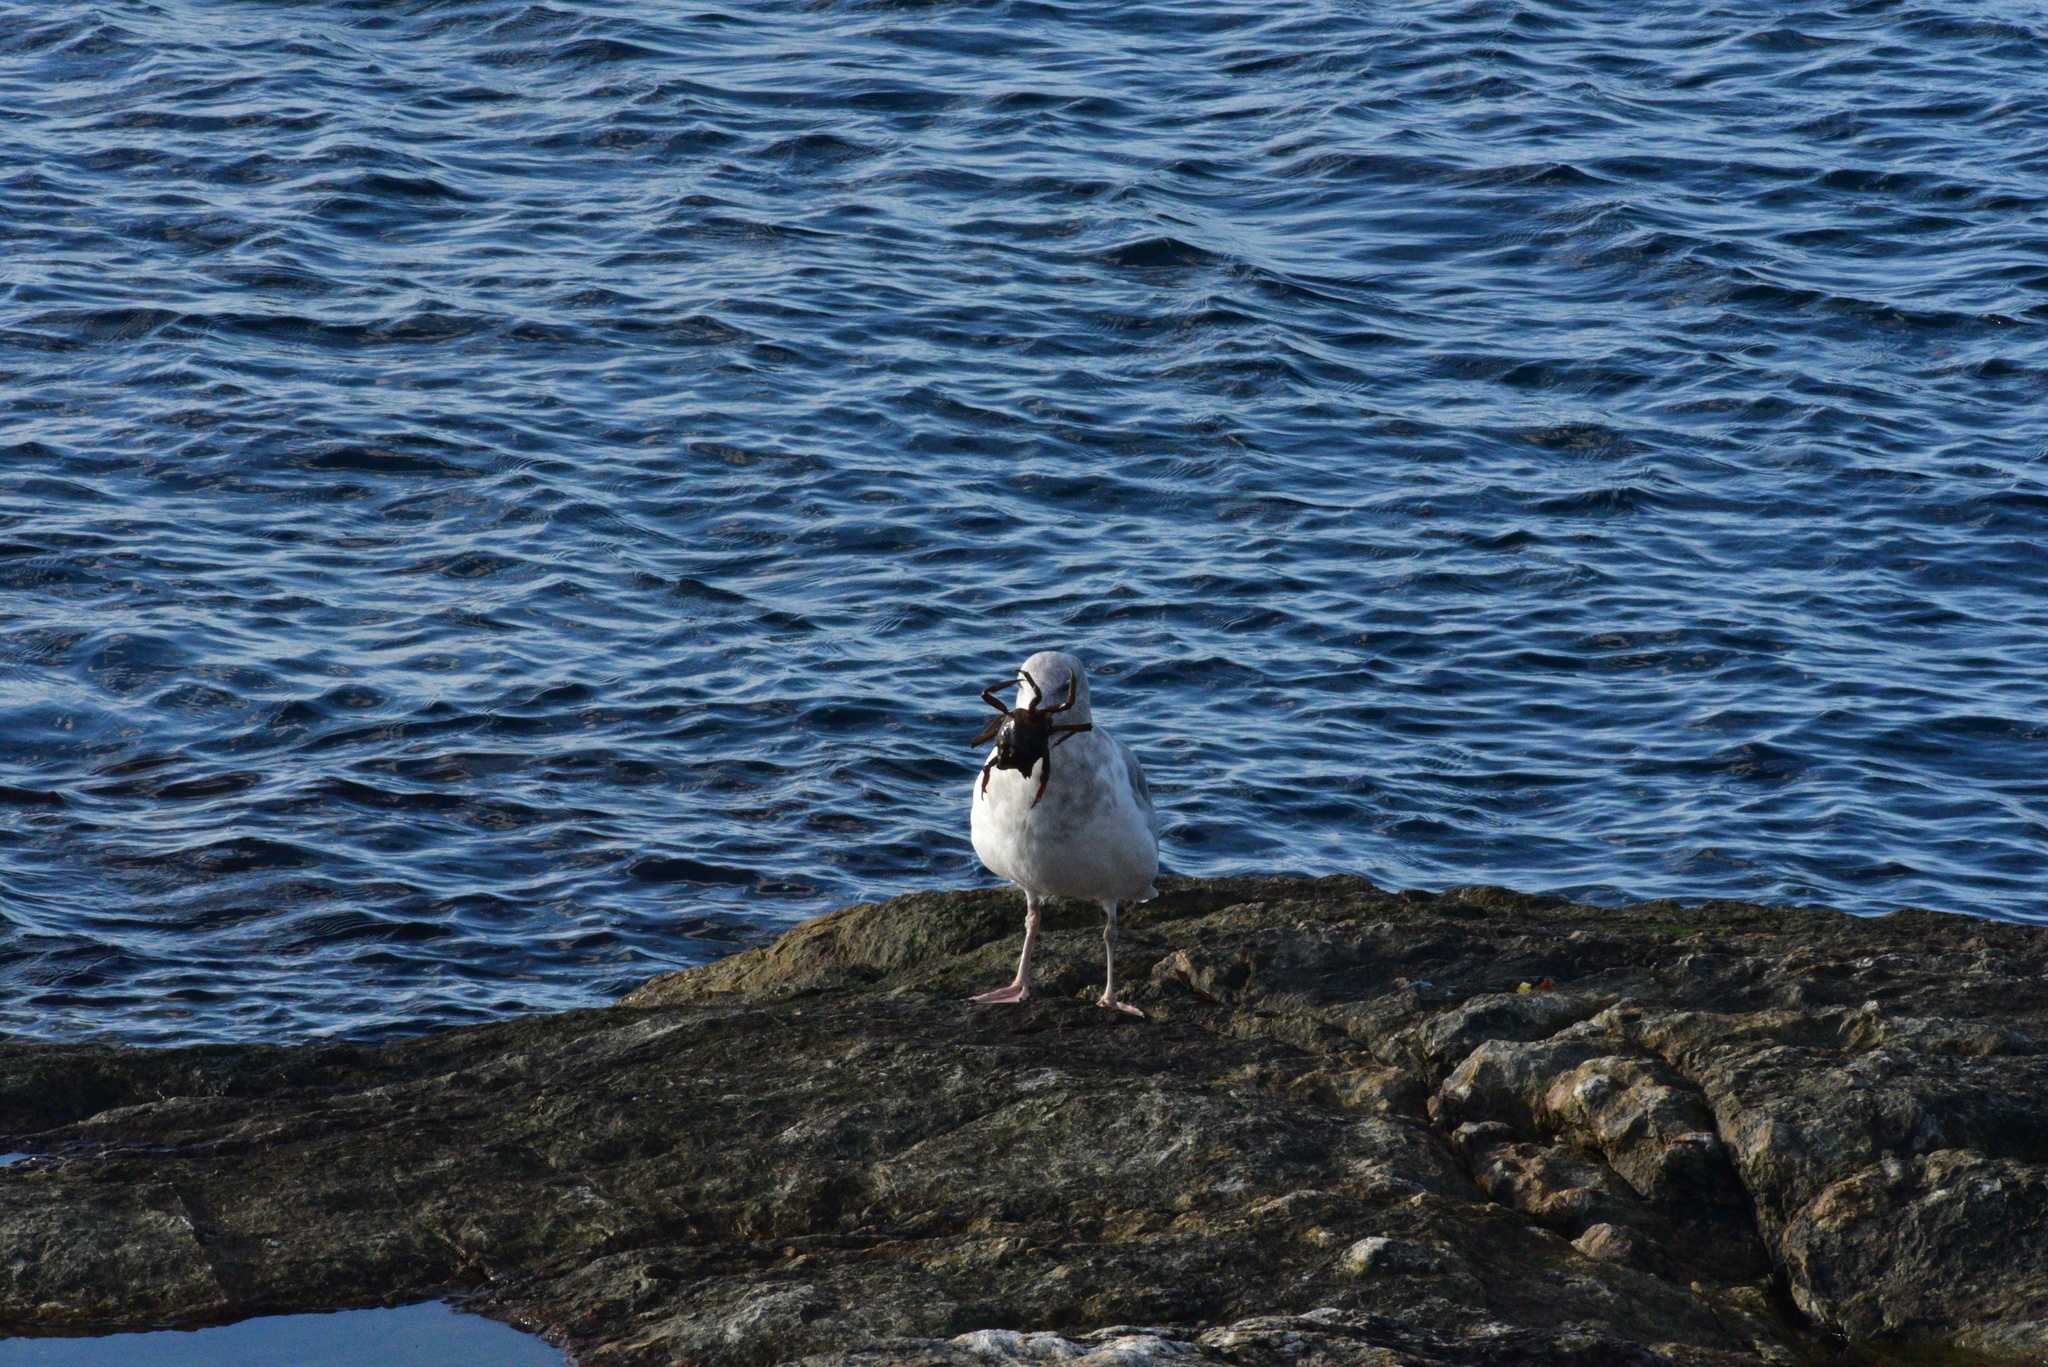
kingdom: Animalia
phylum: Chordata
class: Aves
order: Charadriiformes
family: Laridae
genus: Larus
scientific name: Larus
